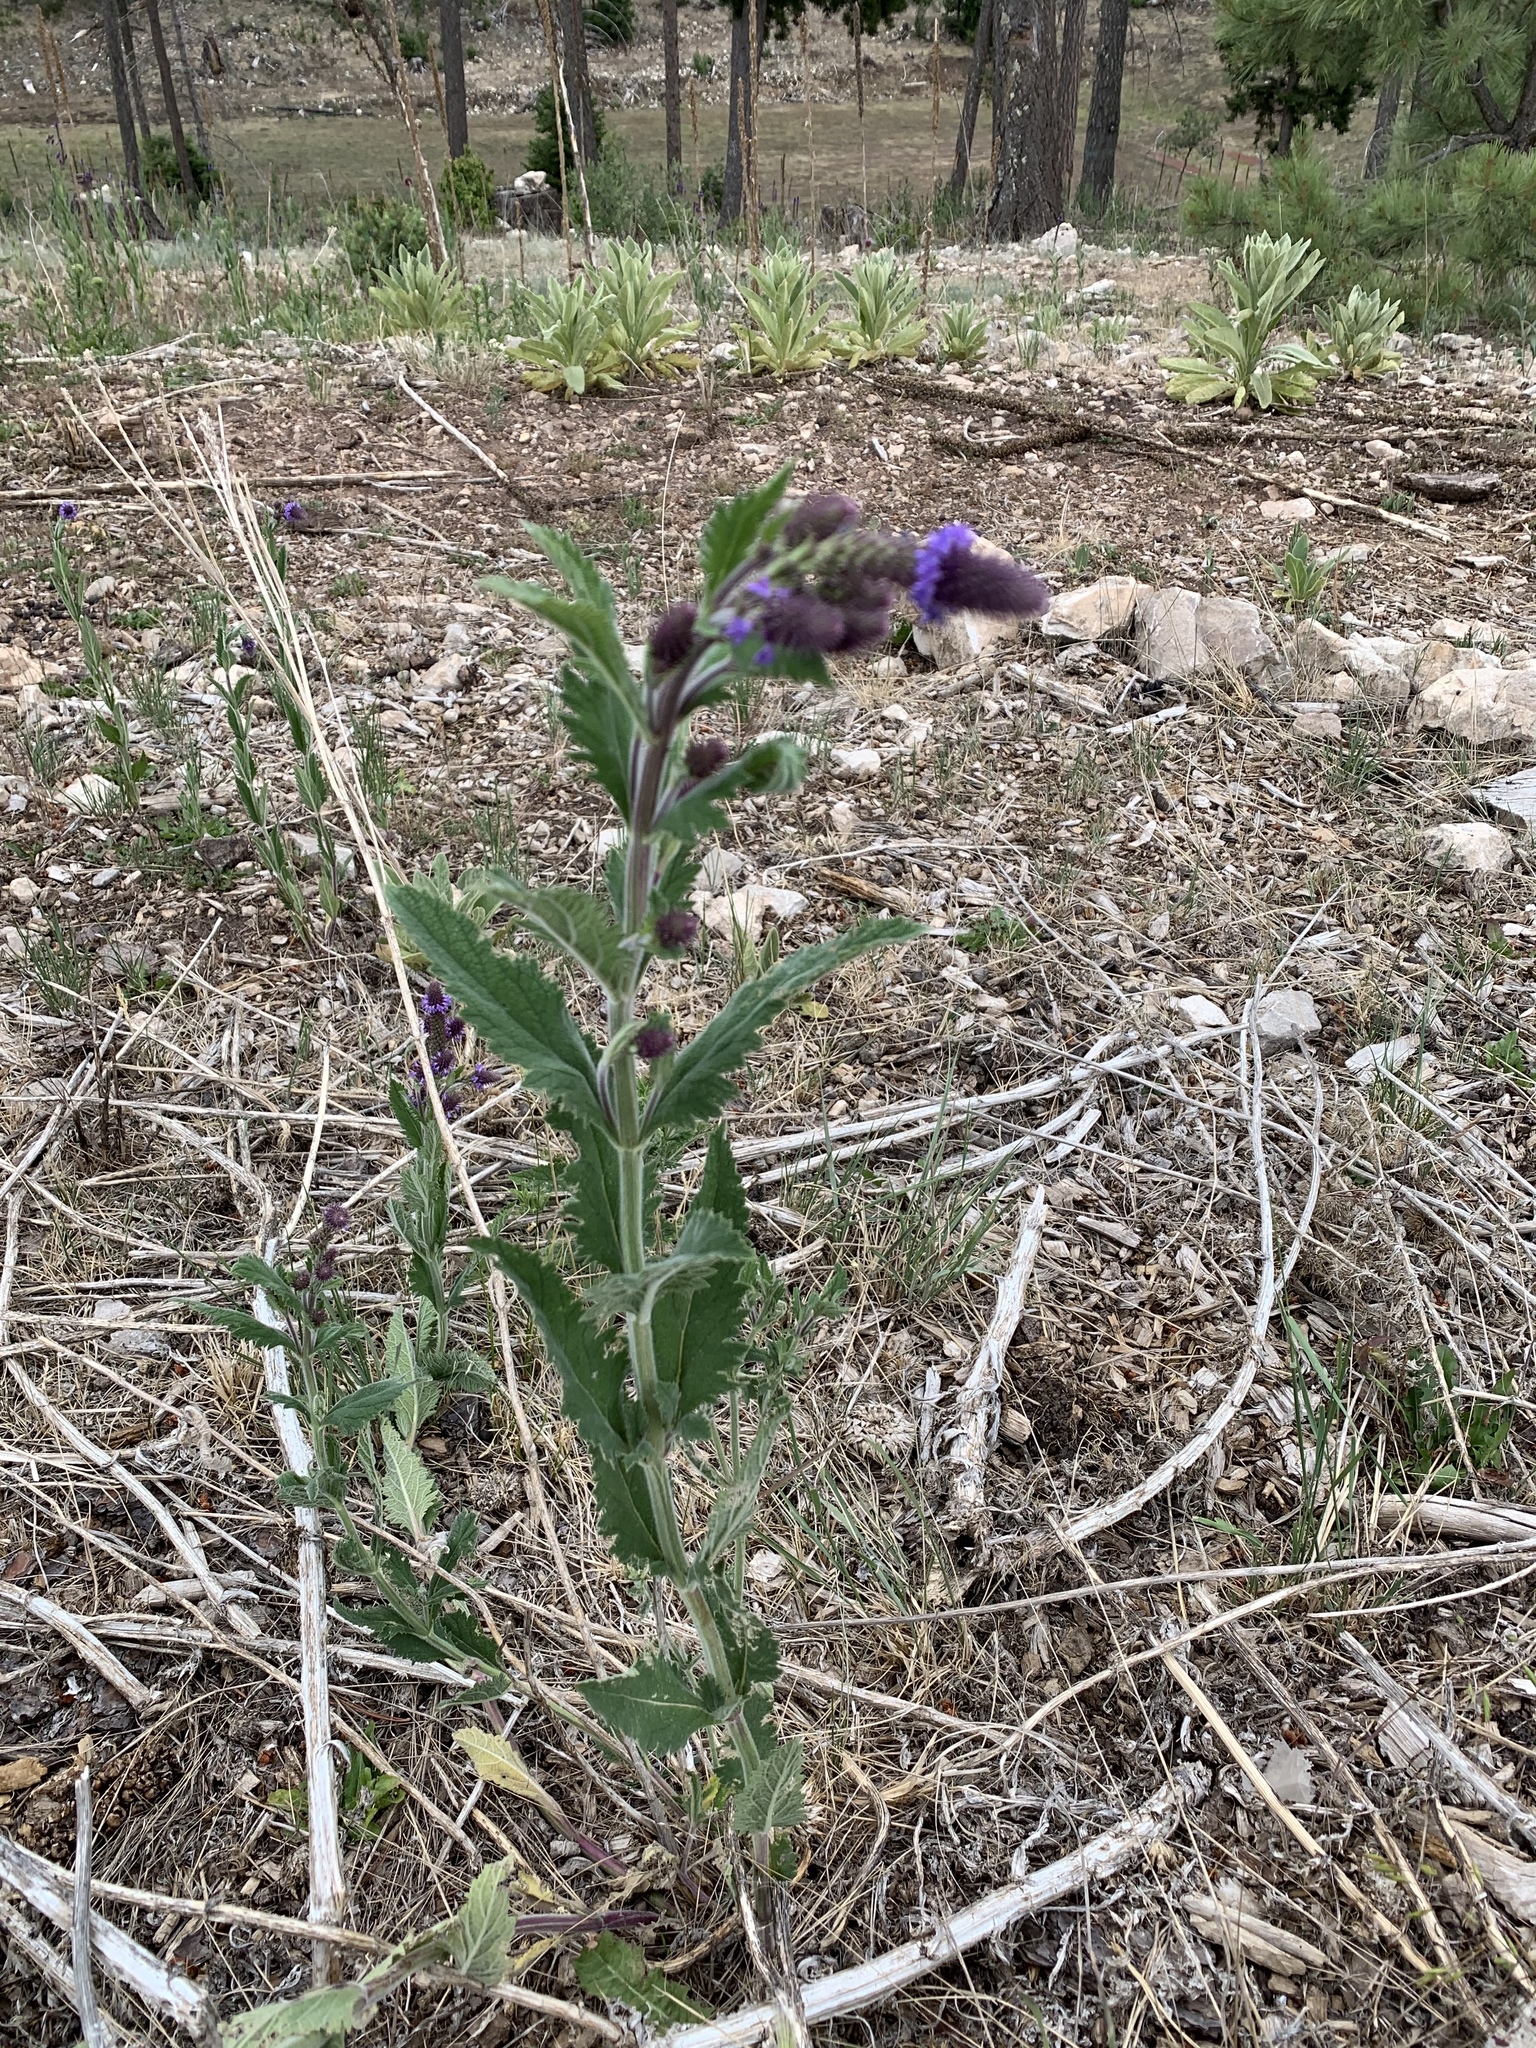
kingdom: Plantae
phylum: Tracheophyta
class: Magnoliopsida
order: Lamiales
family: Verbenaceae
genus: Verbena
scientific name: Verbena macdougalii
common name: New mexico vervain
